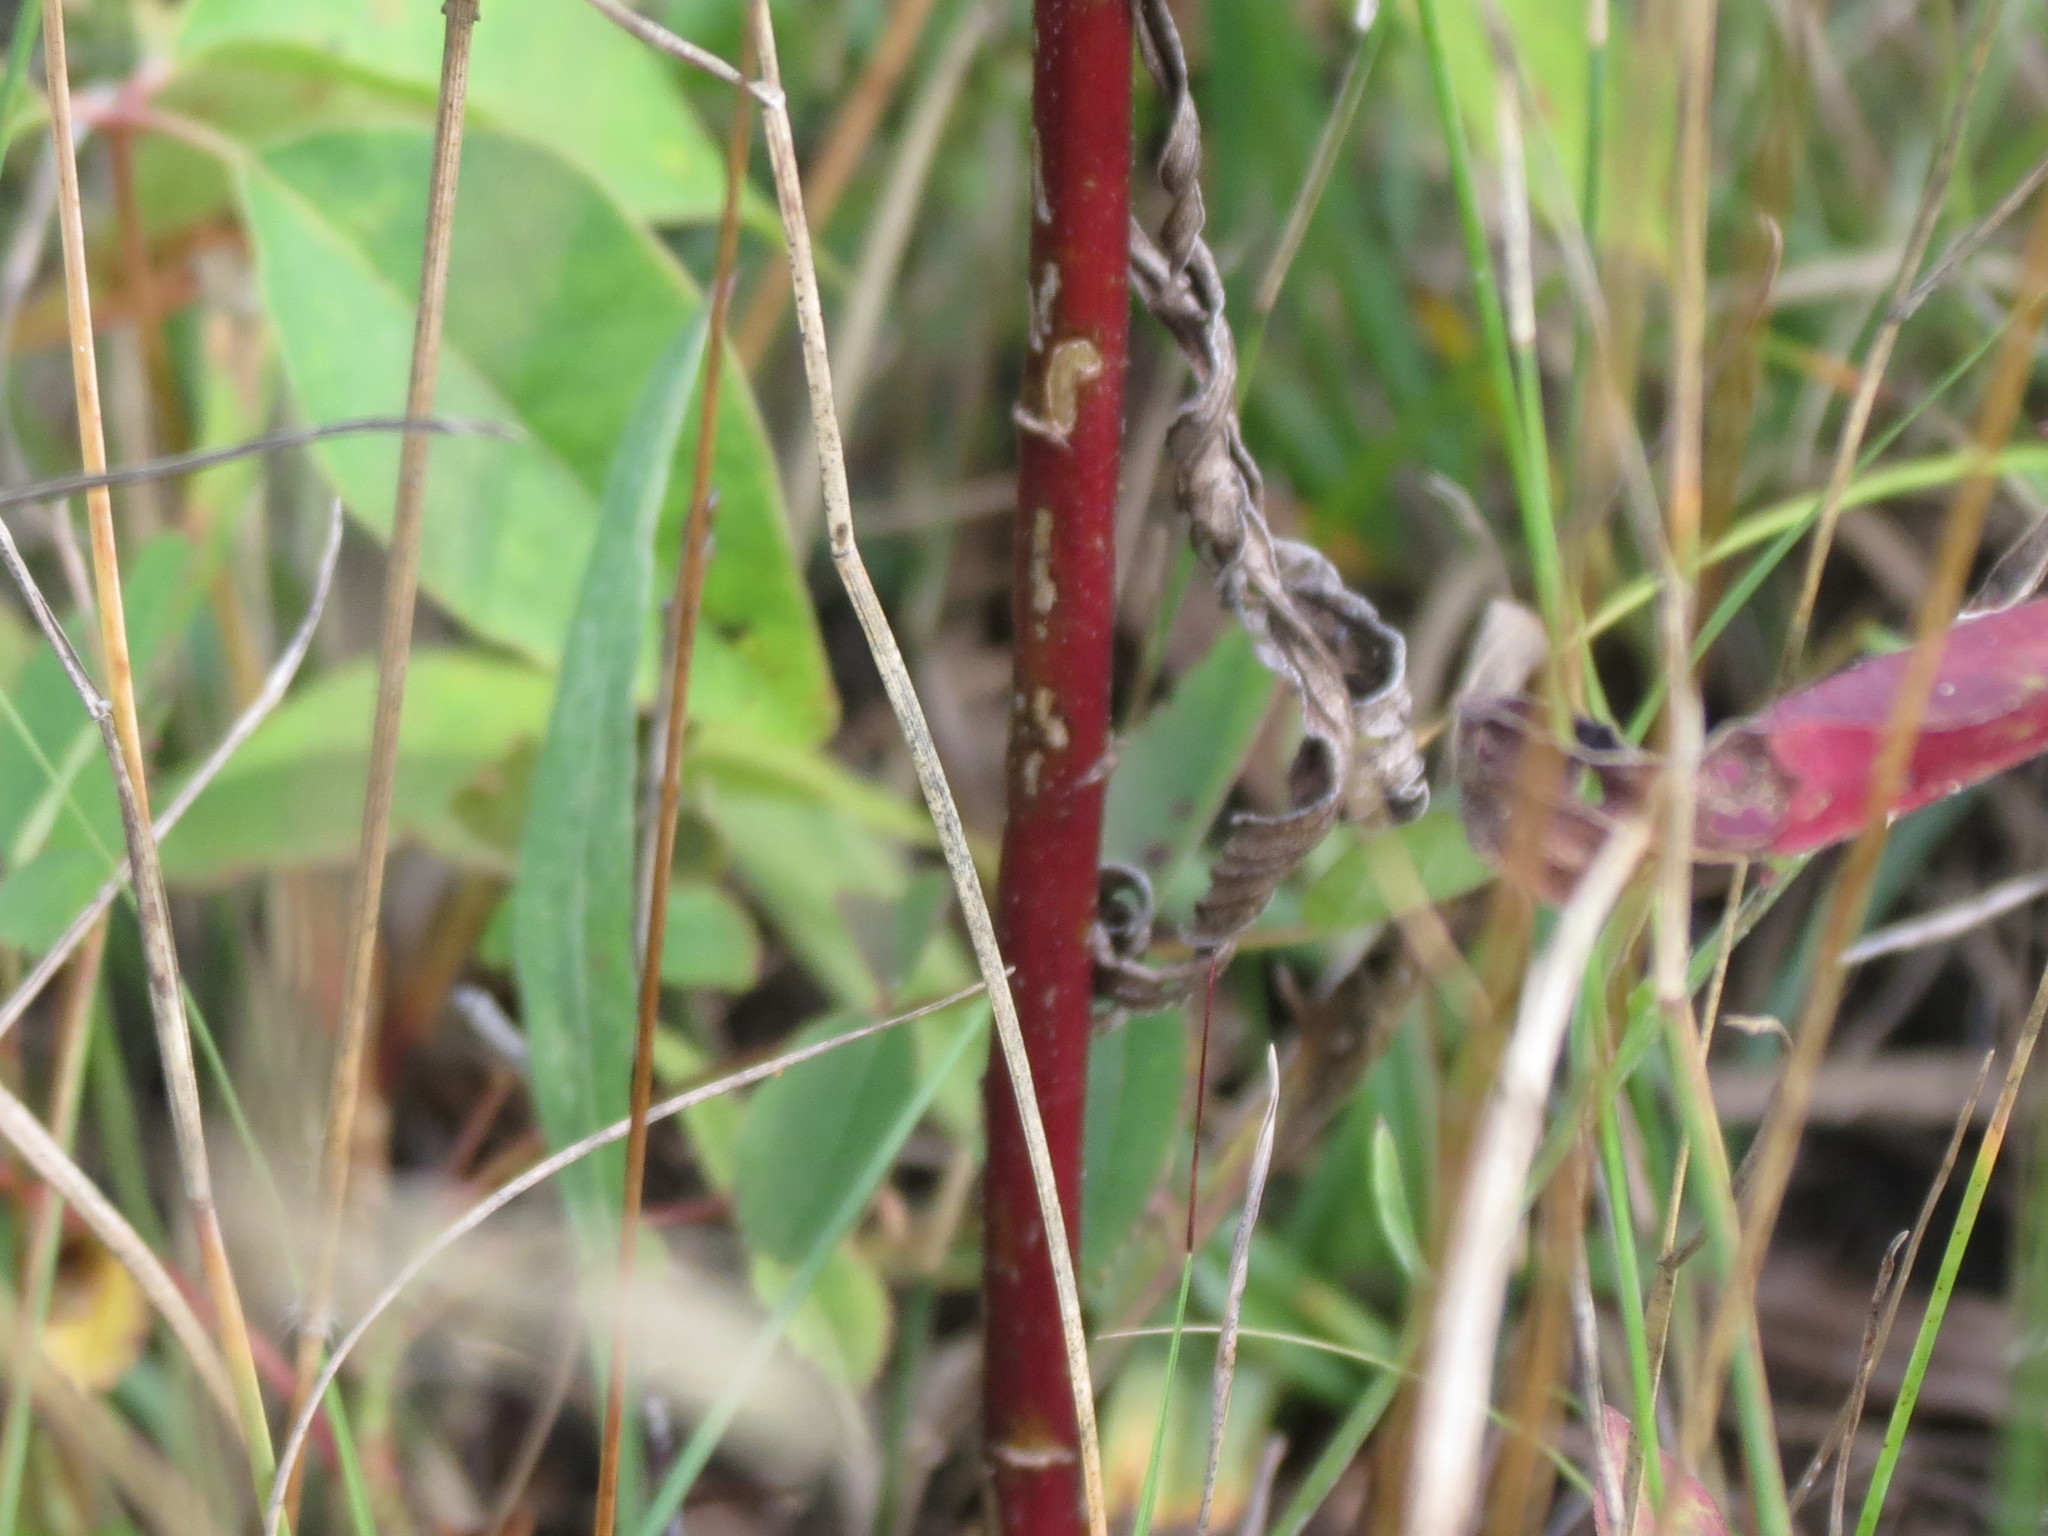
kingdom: Plantae
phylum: Tracheophyta
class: Magnoliopsida
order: Asterales
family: Asteraceae
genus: Solidago
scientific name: Solidago canadensis
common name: Canada goldenrod
